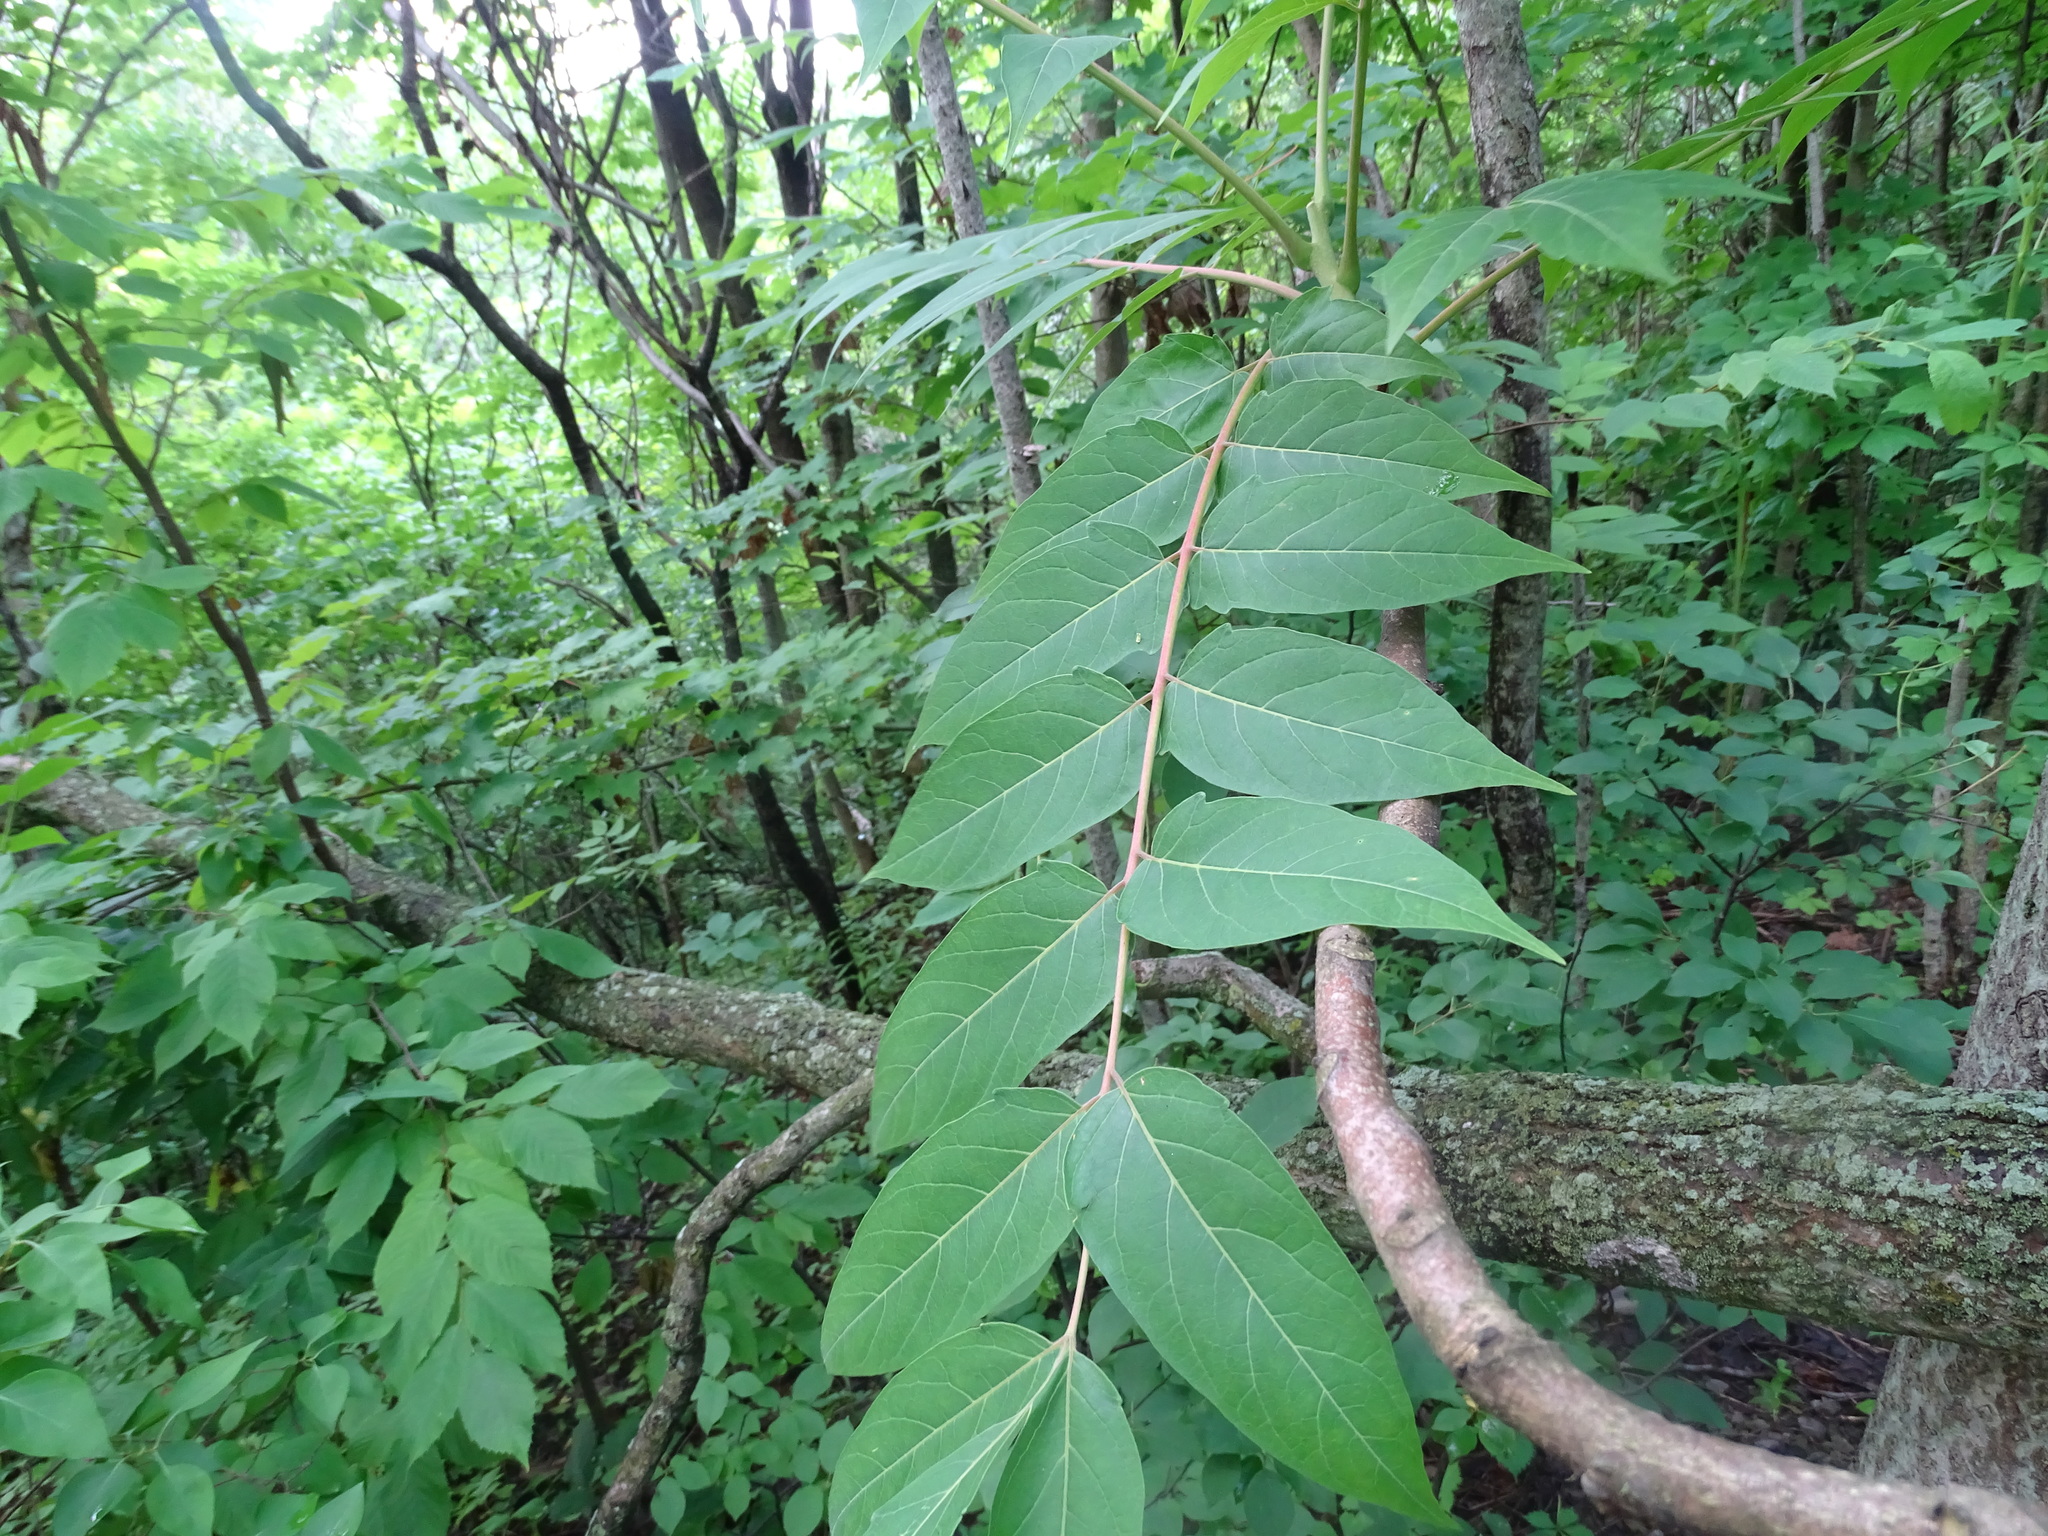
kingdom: Plantae
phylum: Tracheophyta
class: Magnoliopsida
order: Sapindales
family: Simaroubaceae
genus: Ailanthus
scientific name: Ailanthus altissima
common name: Tree-of-heaven
